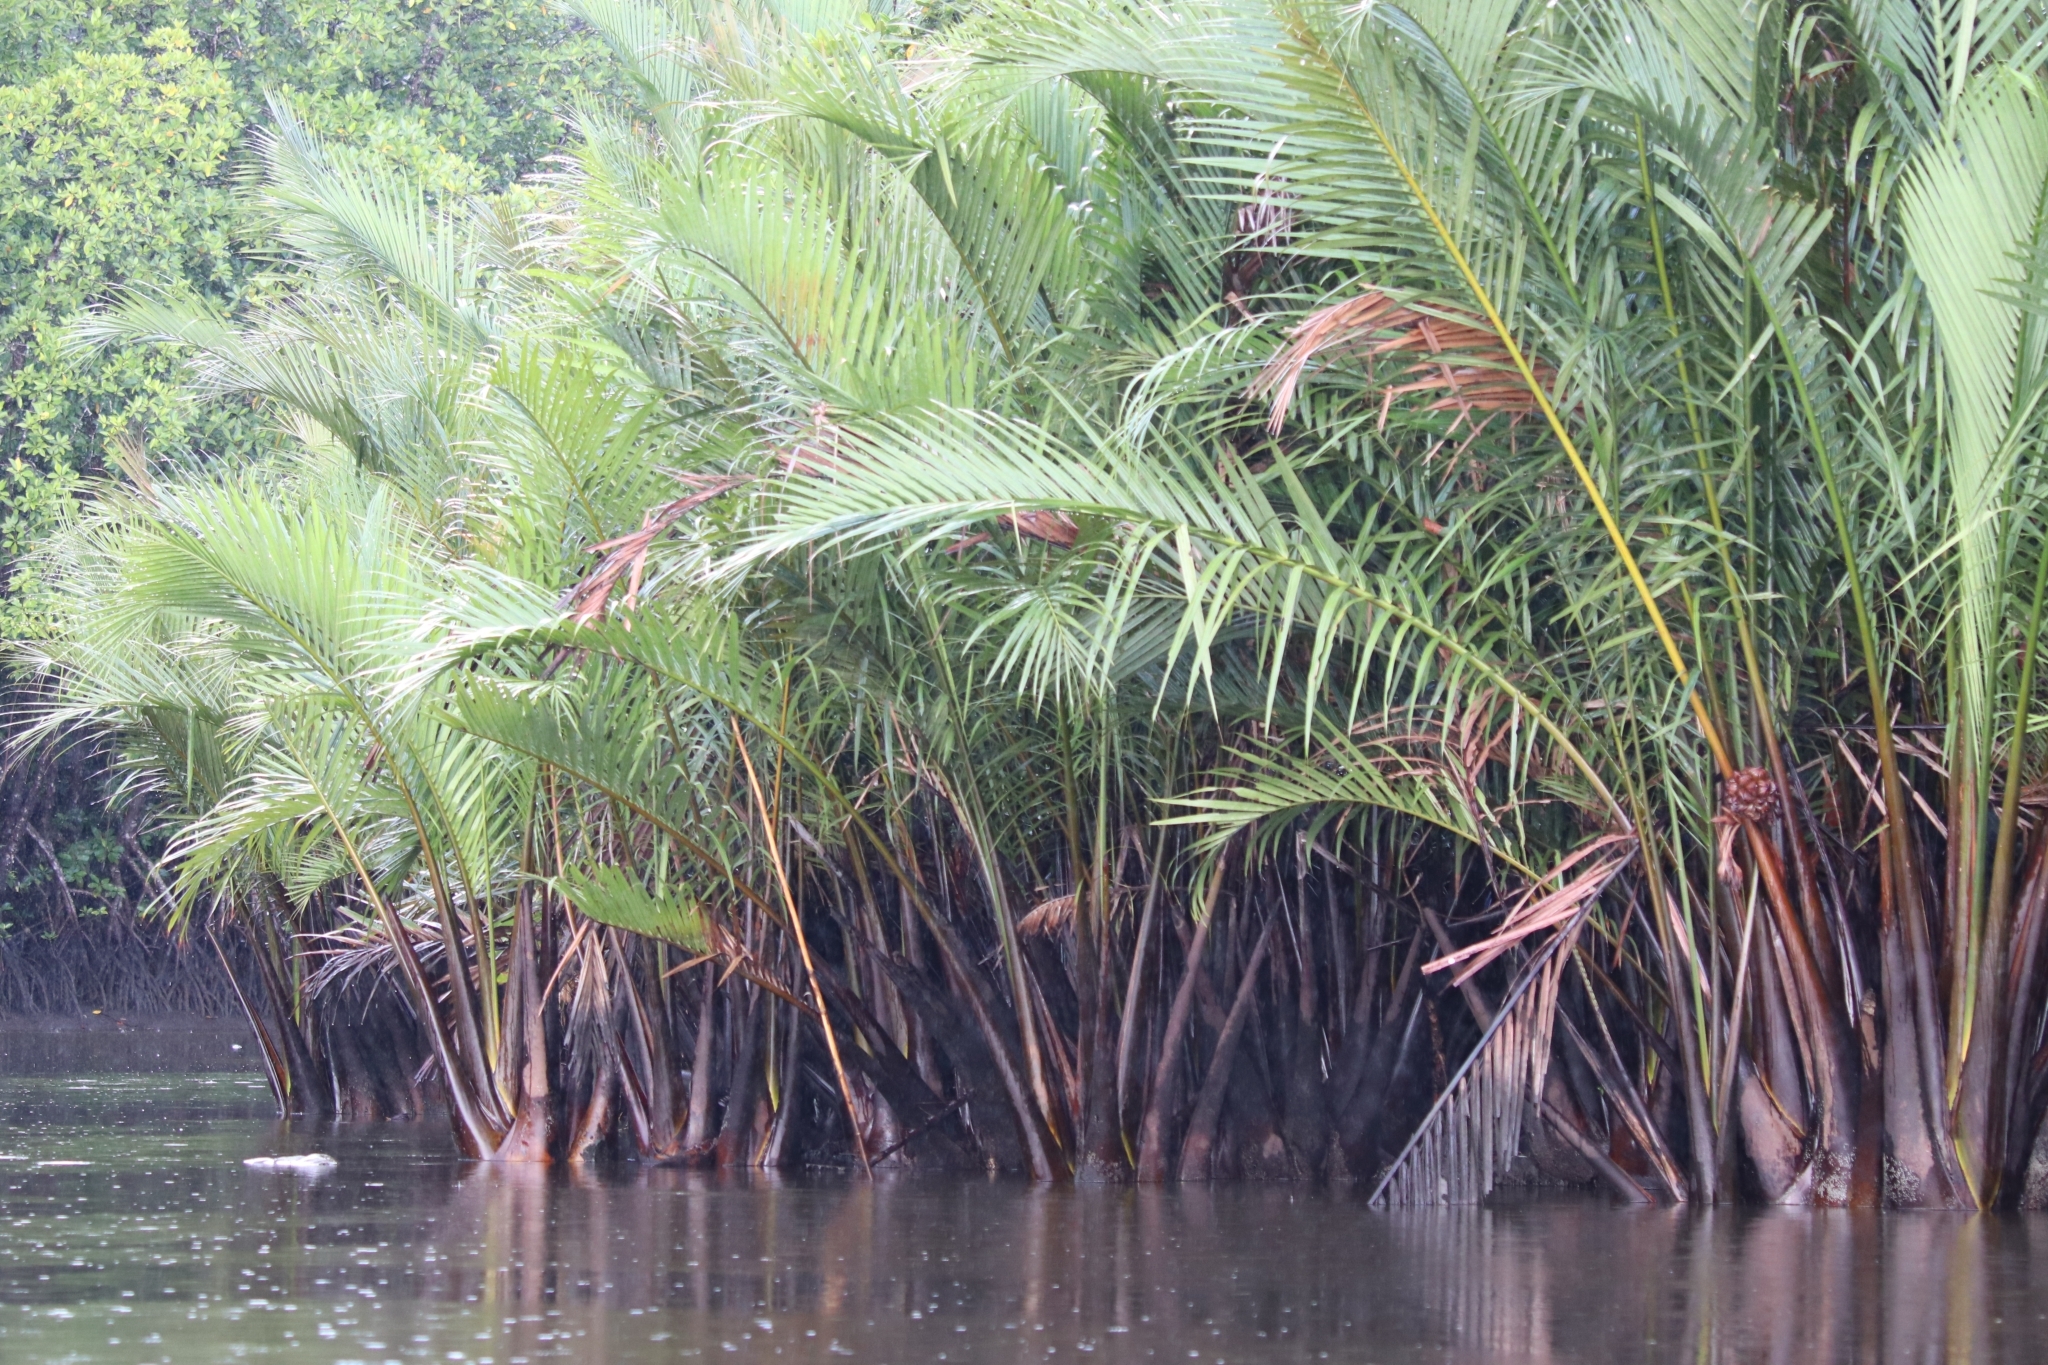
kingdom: Plantae
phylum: Tracheophyta
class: Liliopsida
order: Arecales
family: Arecaceae
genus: Nypa
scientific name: Nypa fruticans
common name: Mangrove palm
